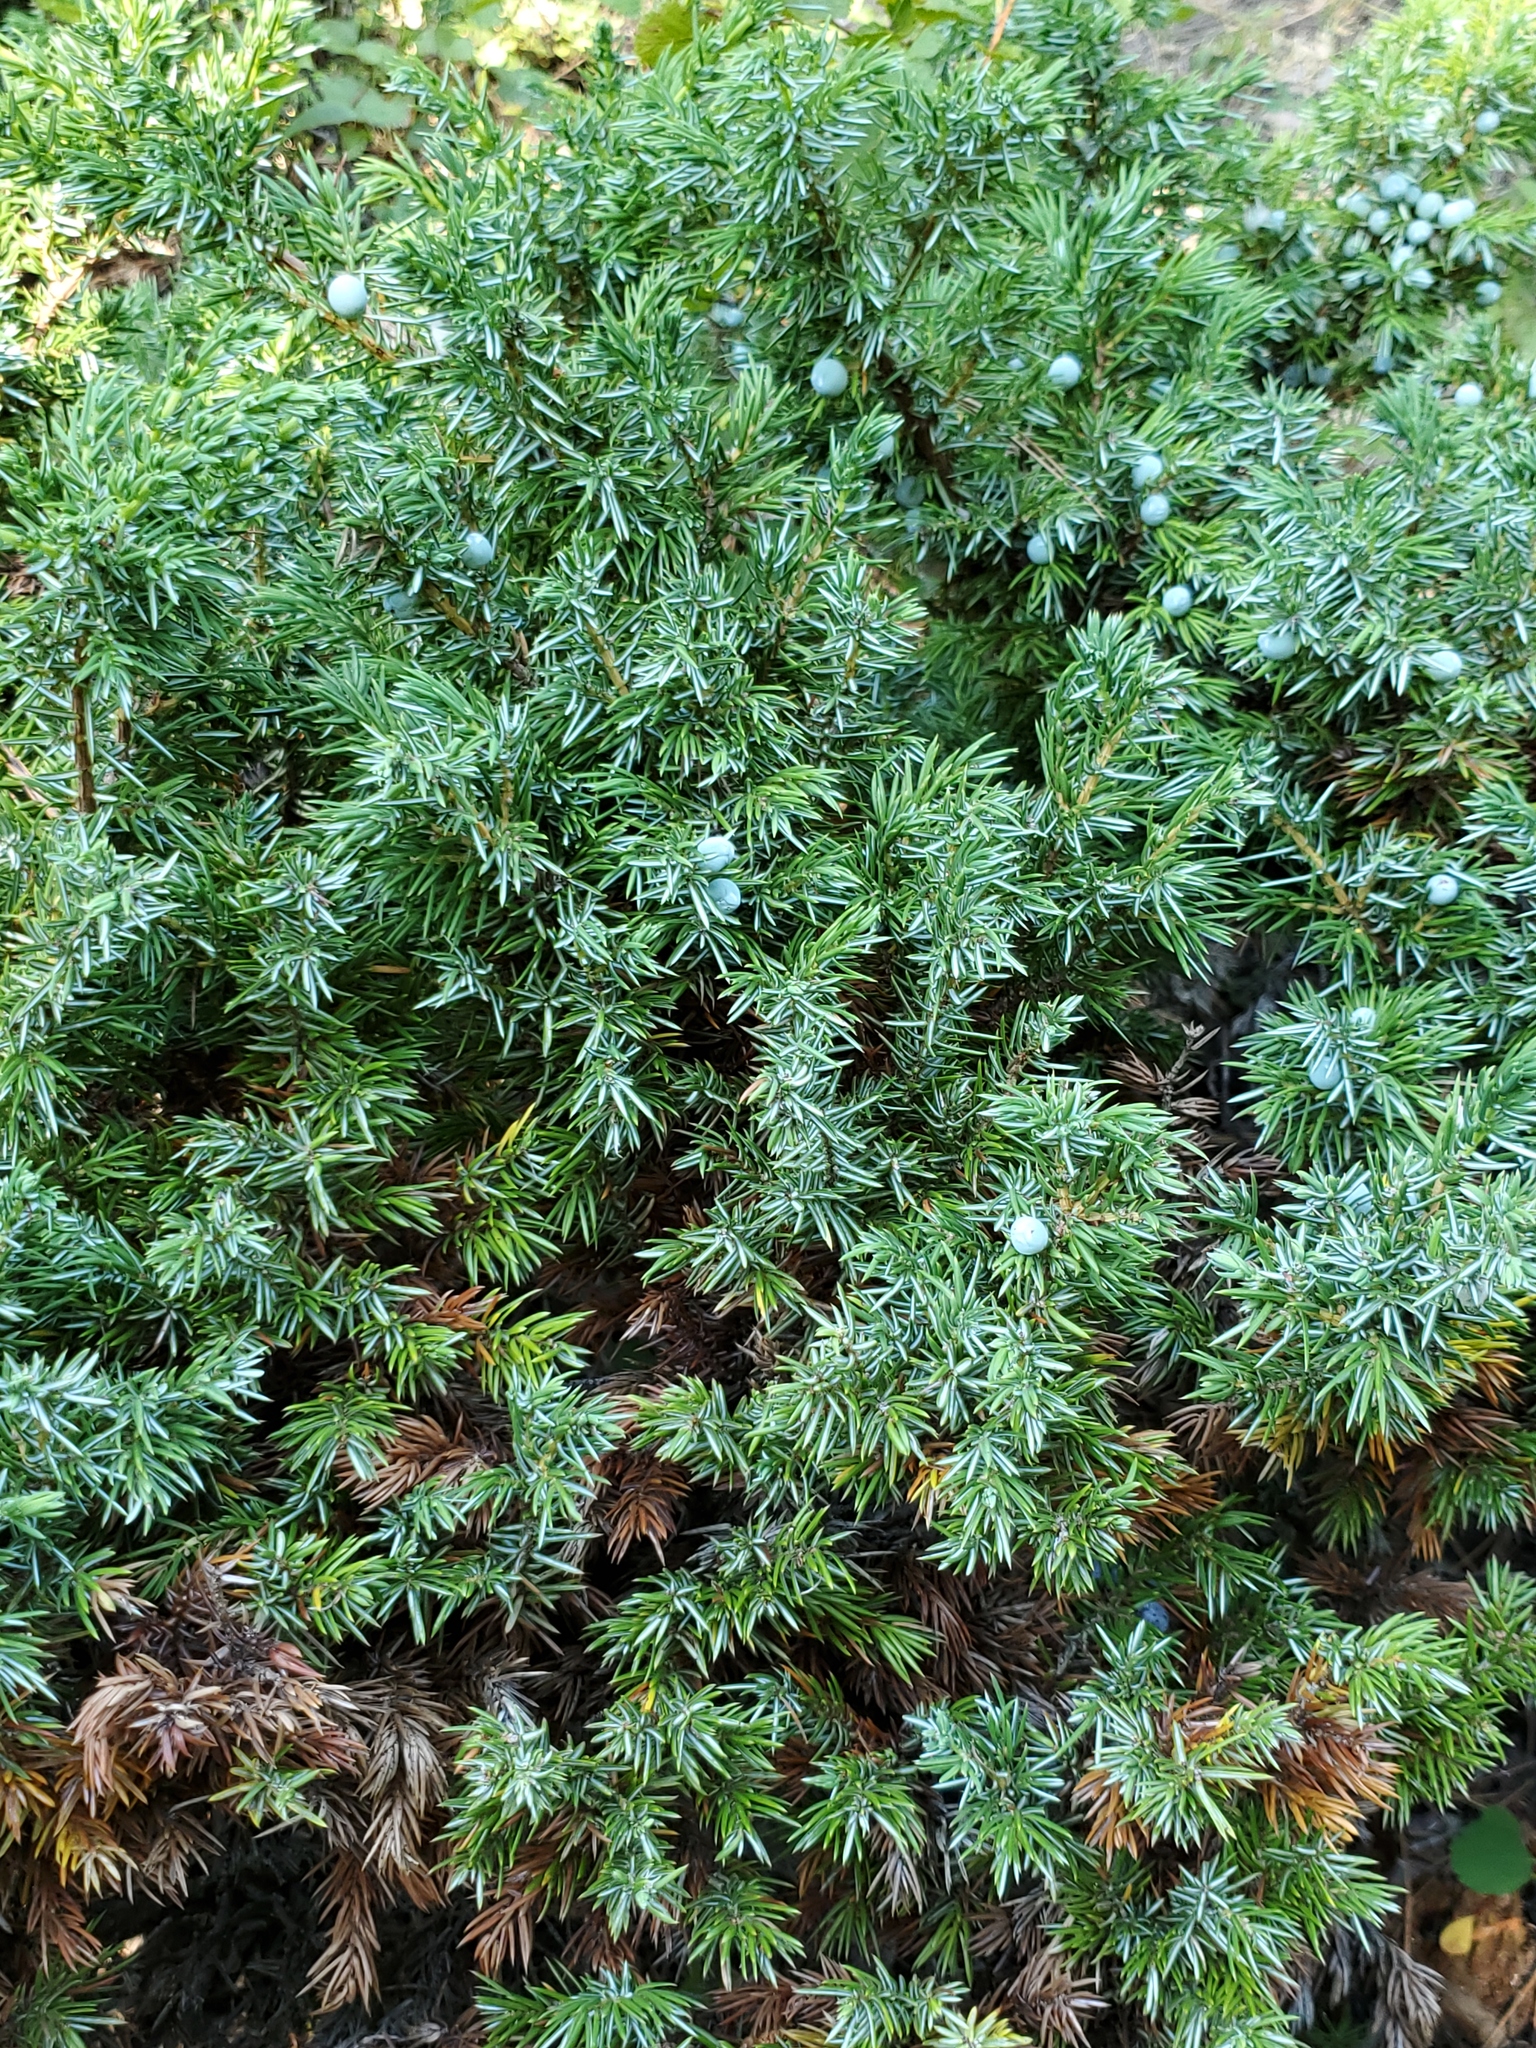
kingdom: Plantae
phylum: Tracheophyta
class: Pinopsida
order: Pinales
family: Cupressaceae
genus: Juniperus
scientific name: Juniperus communis
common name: Common juniper
